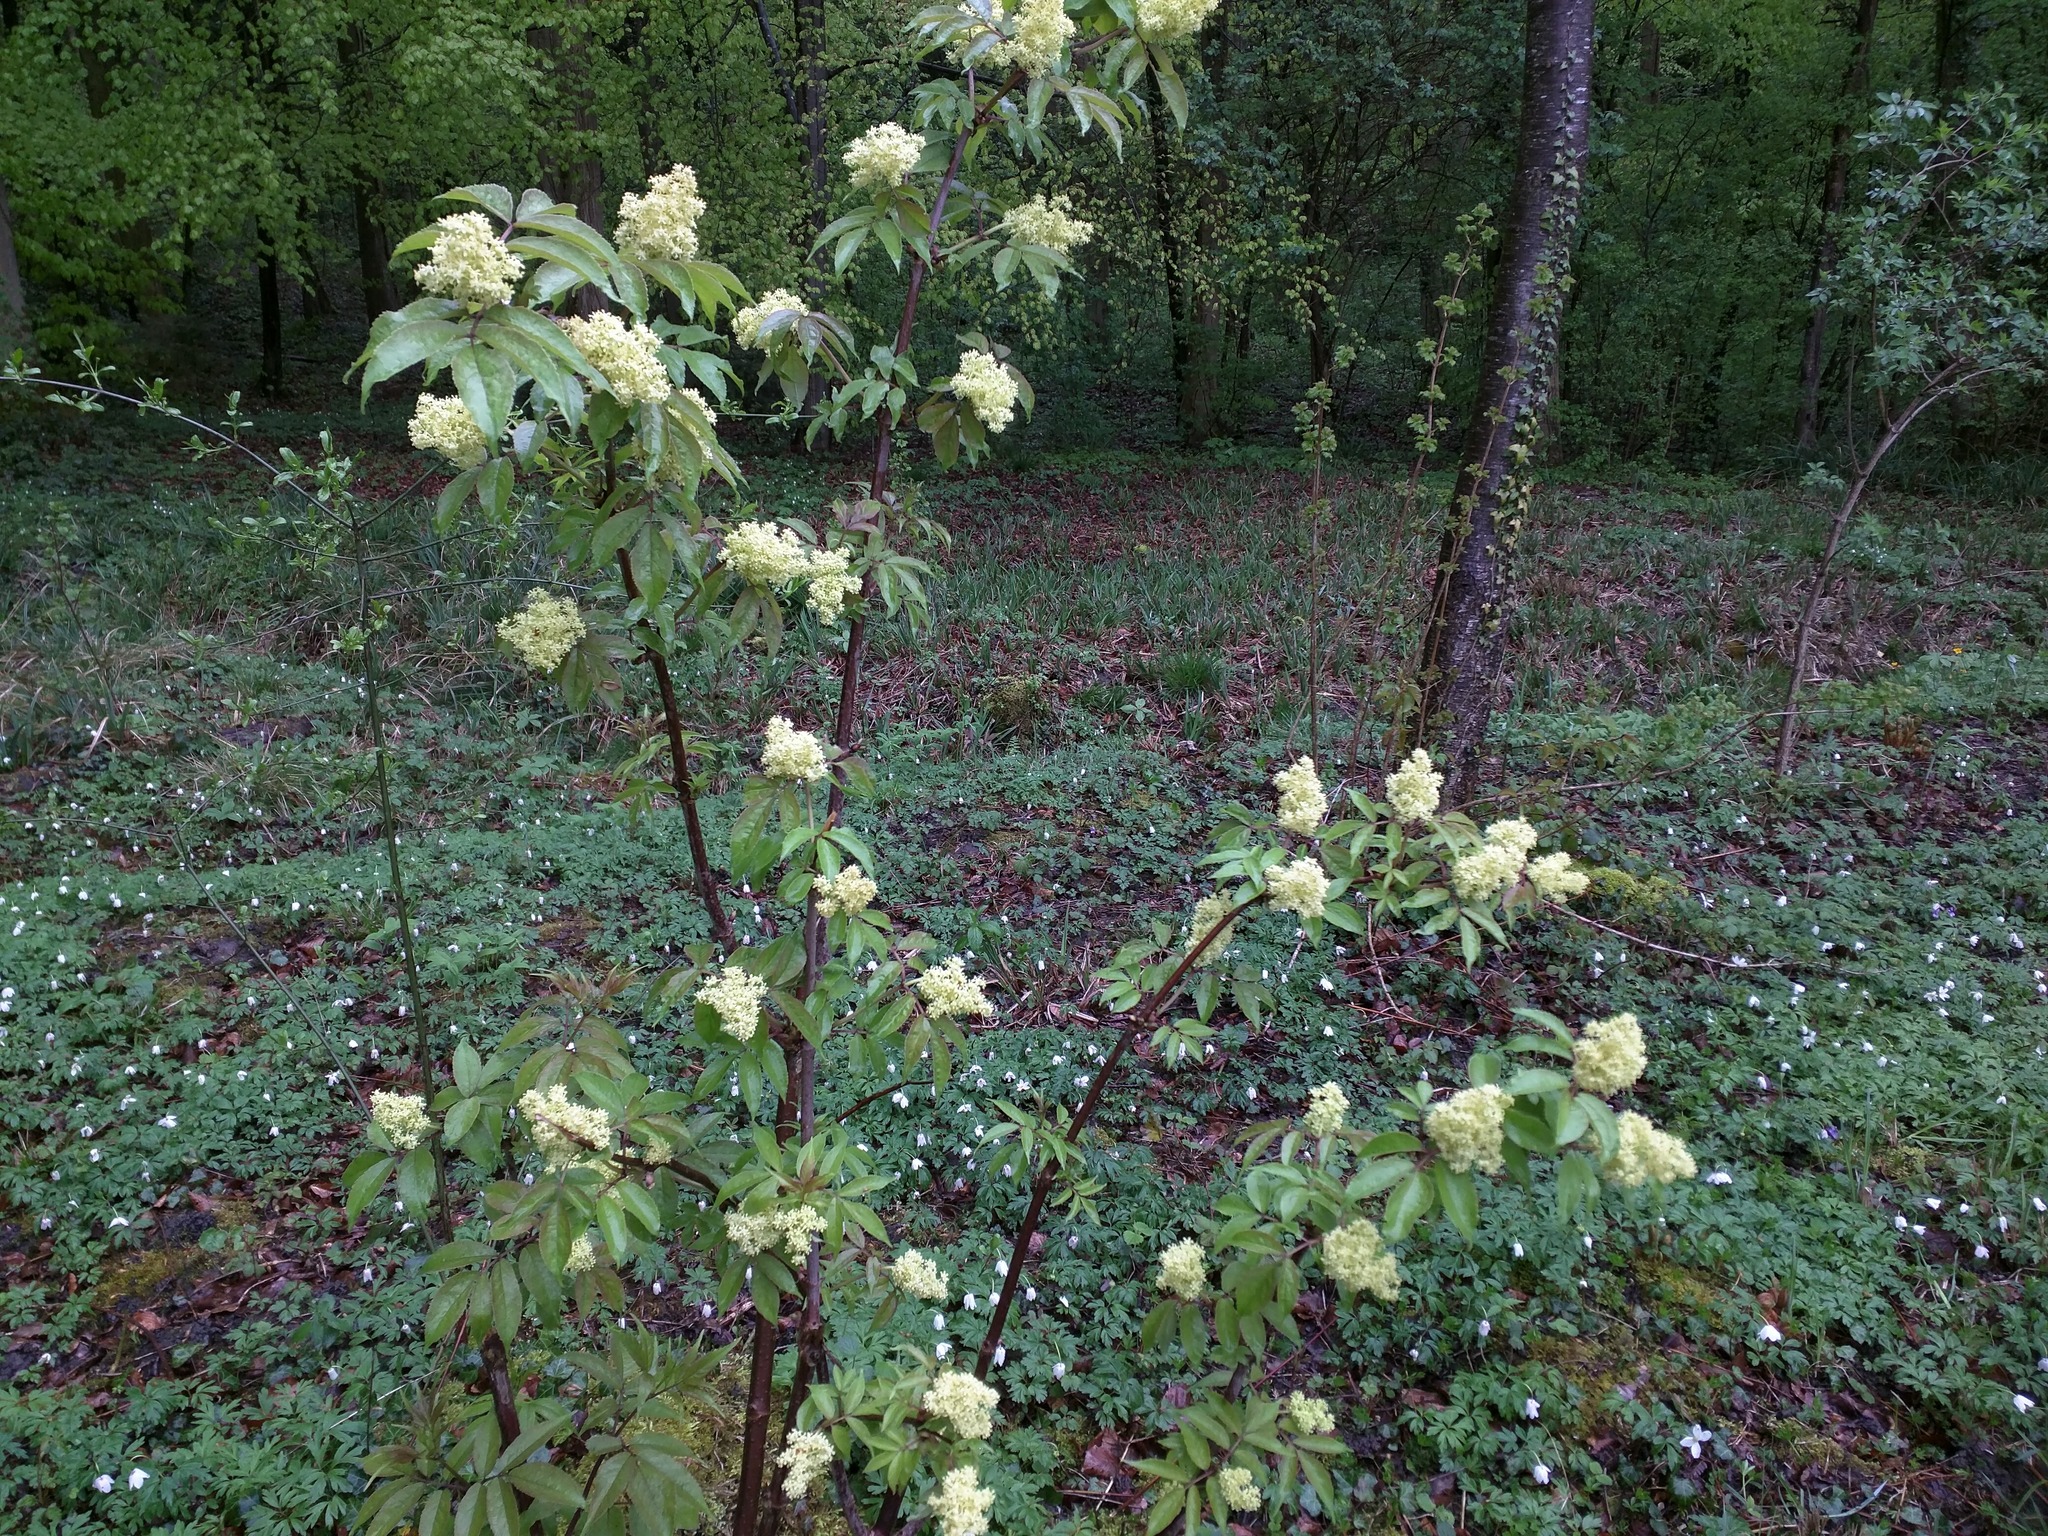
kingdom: Plantae
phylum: Tracheophyta
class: Magnoliopsida
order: Dipsacales
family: Viburnaceae
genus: Sambucus
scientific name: Sambucus racemosa
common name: Red-berried elder
